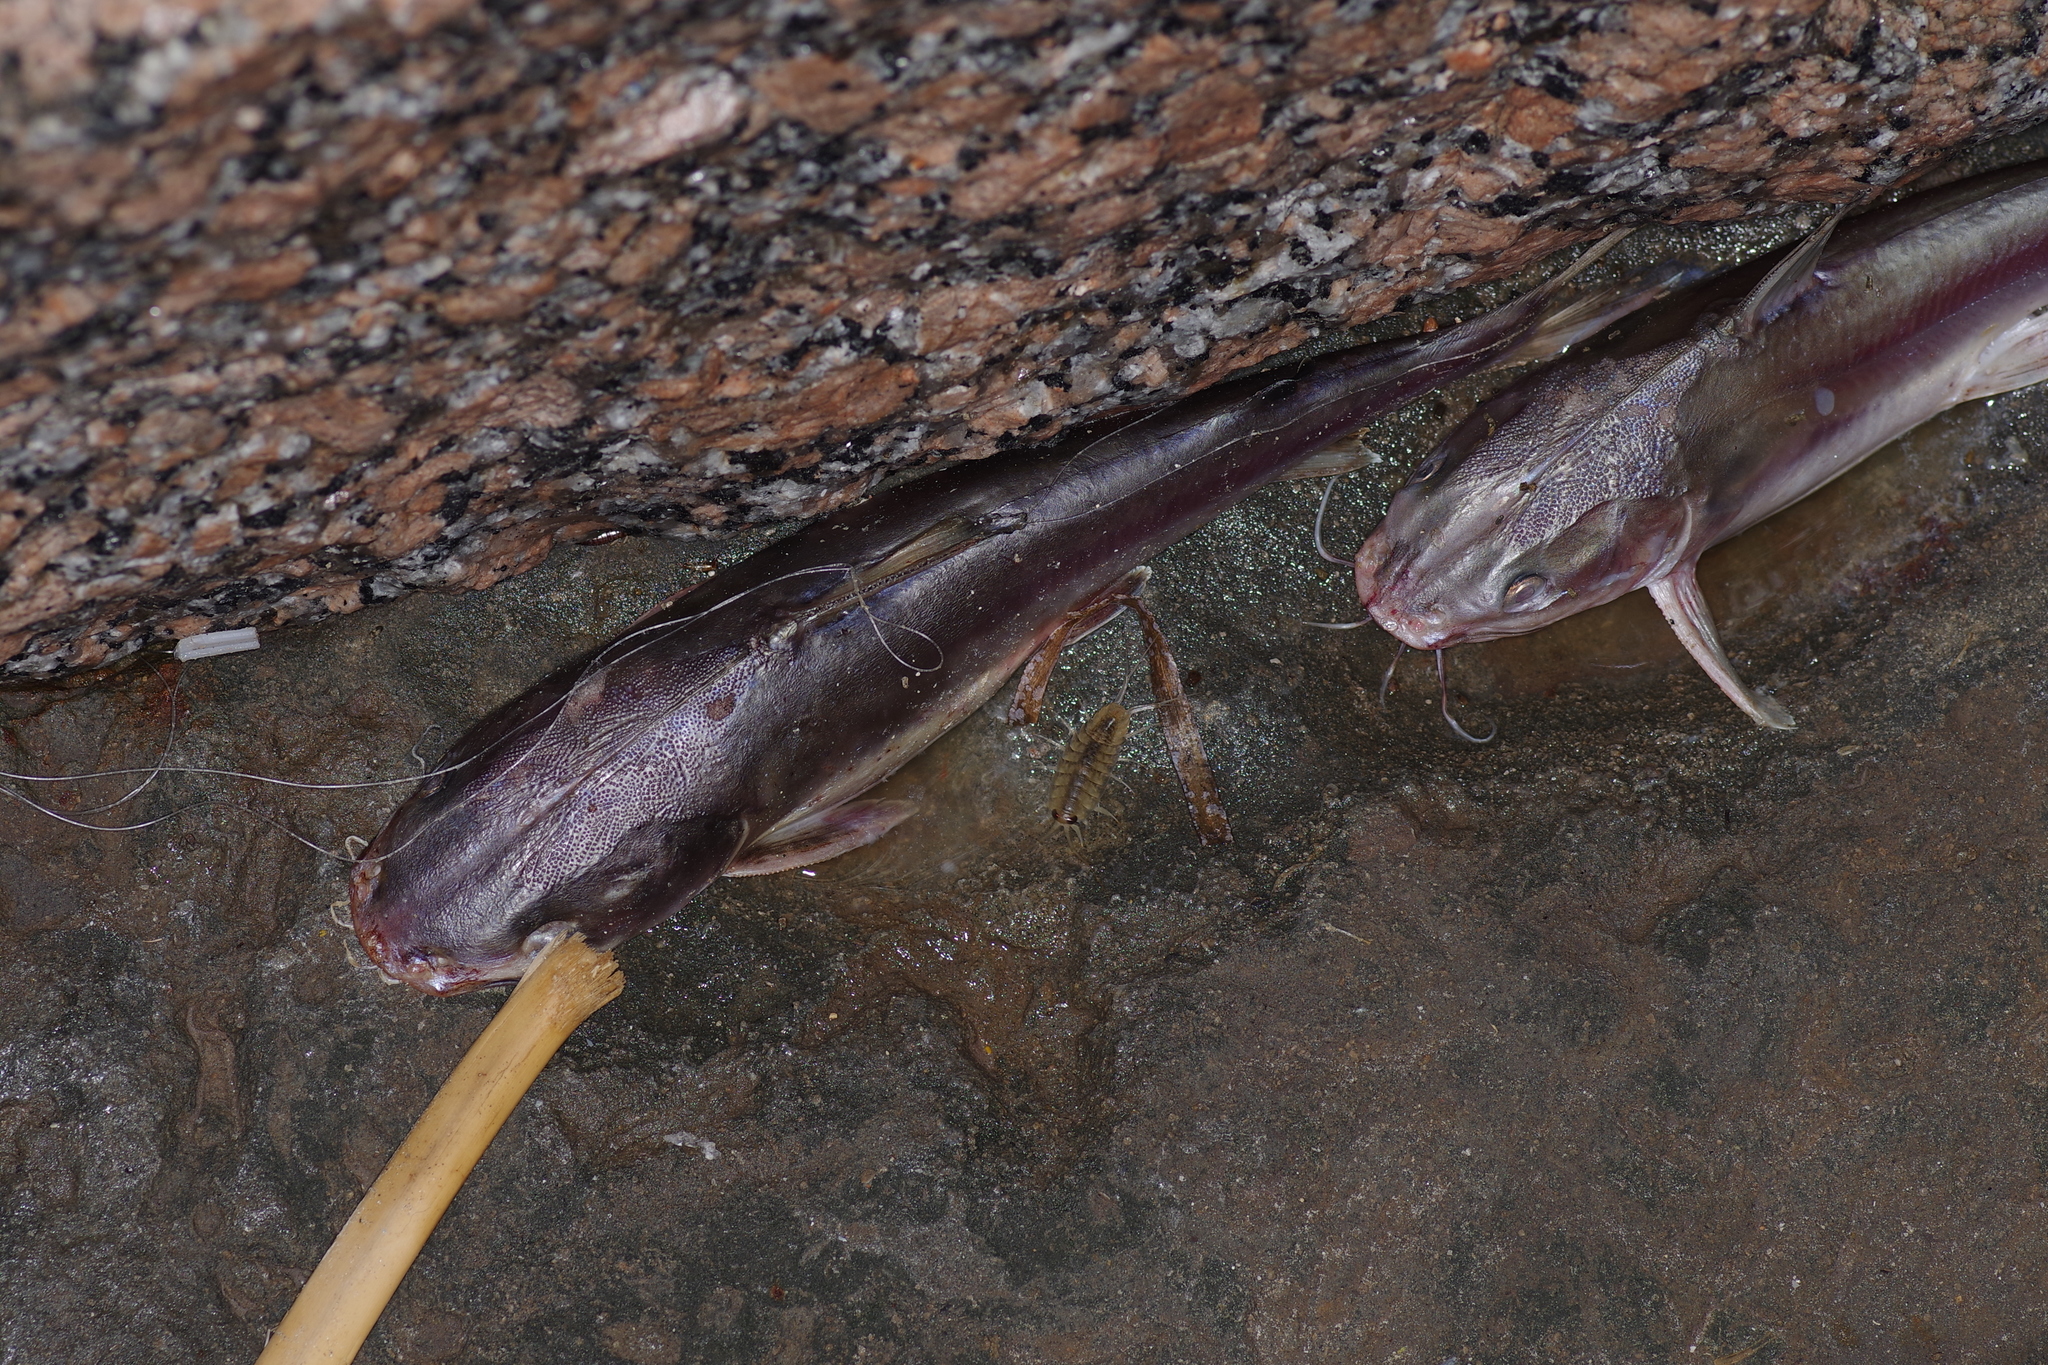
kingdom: Animalia
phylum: Chordata
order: Siluriformes
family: Ariidae
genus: Ariopsis
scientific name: Ariopsis felis
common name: Hardhead catfish
